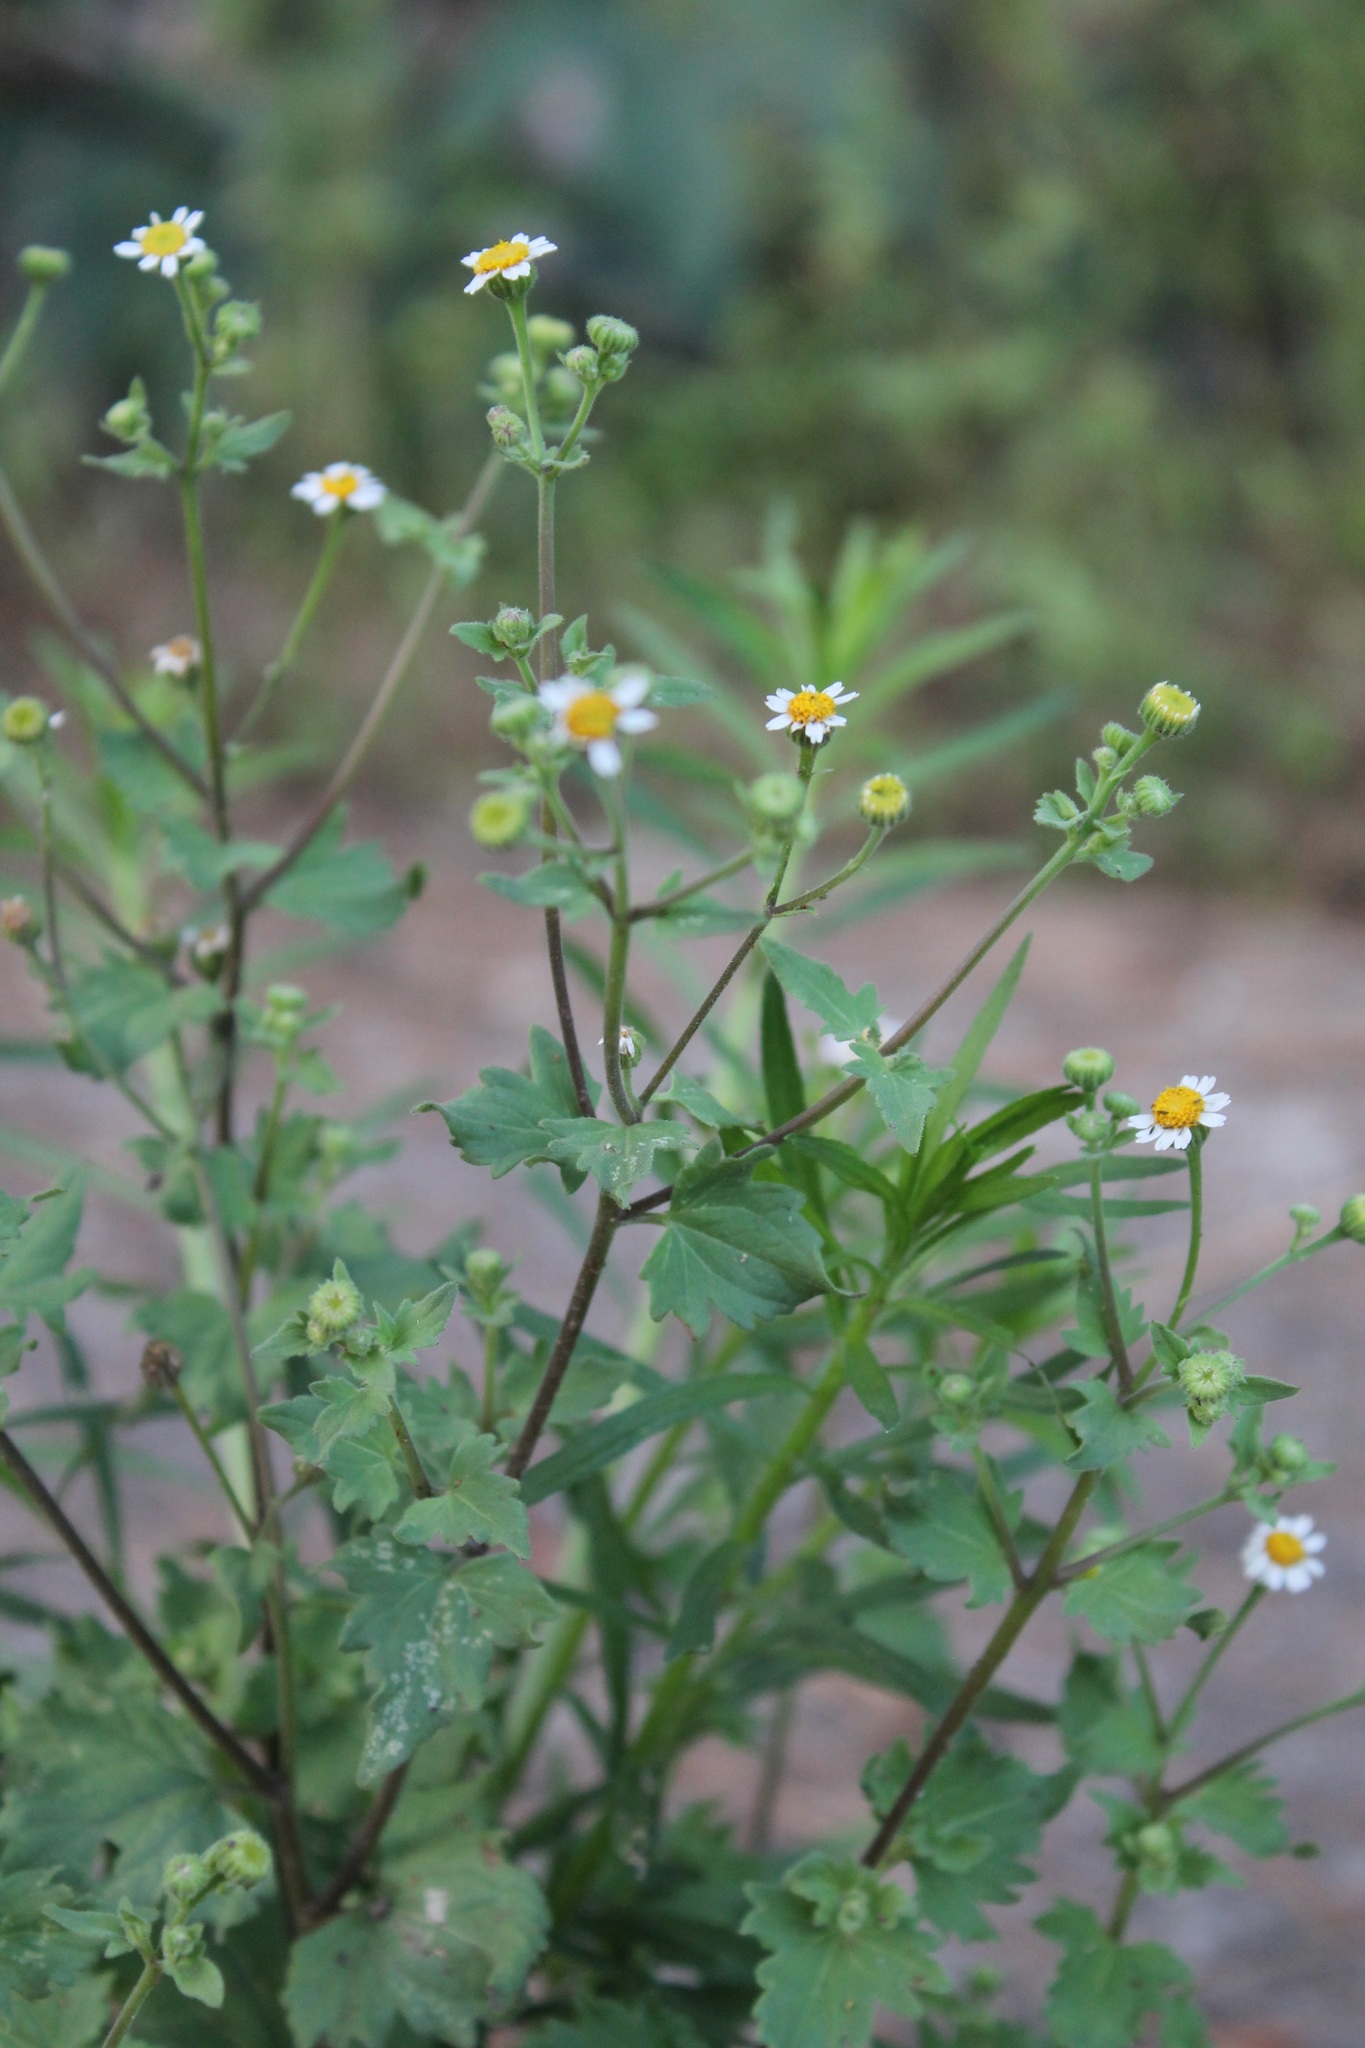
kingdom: Plantae
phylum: Tracheophyta
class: Magnoliopsida
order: Asterales
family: Asteraceae
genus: Galinsogeopsis
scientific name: Galinsogeopsis spilanthoides
